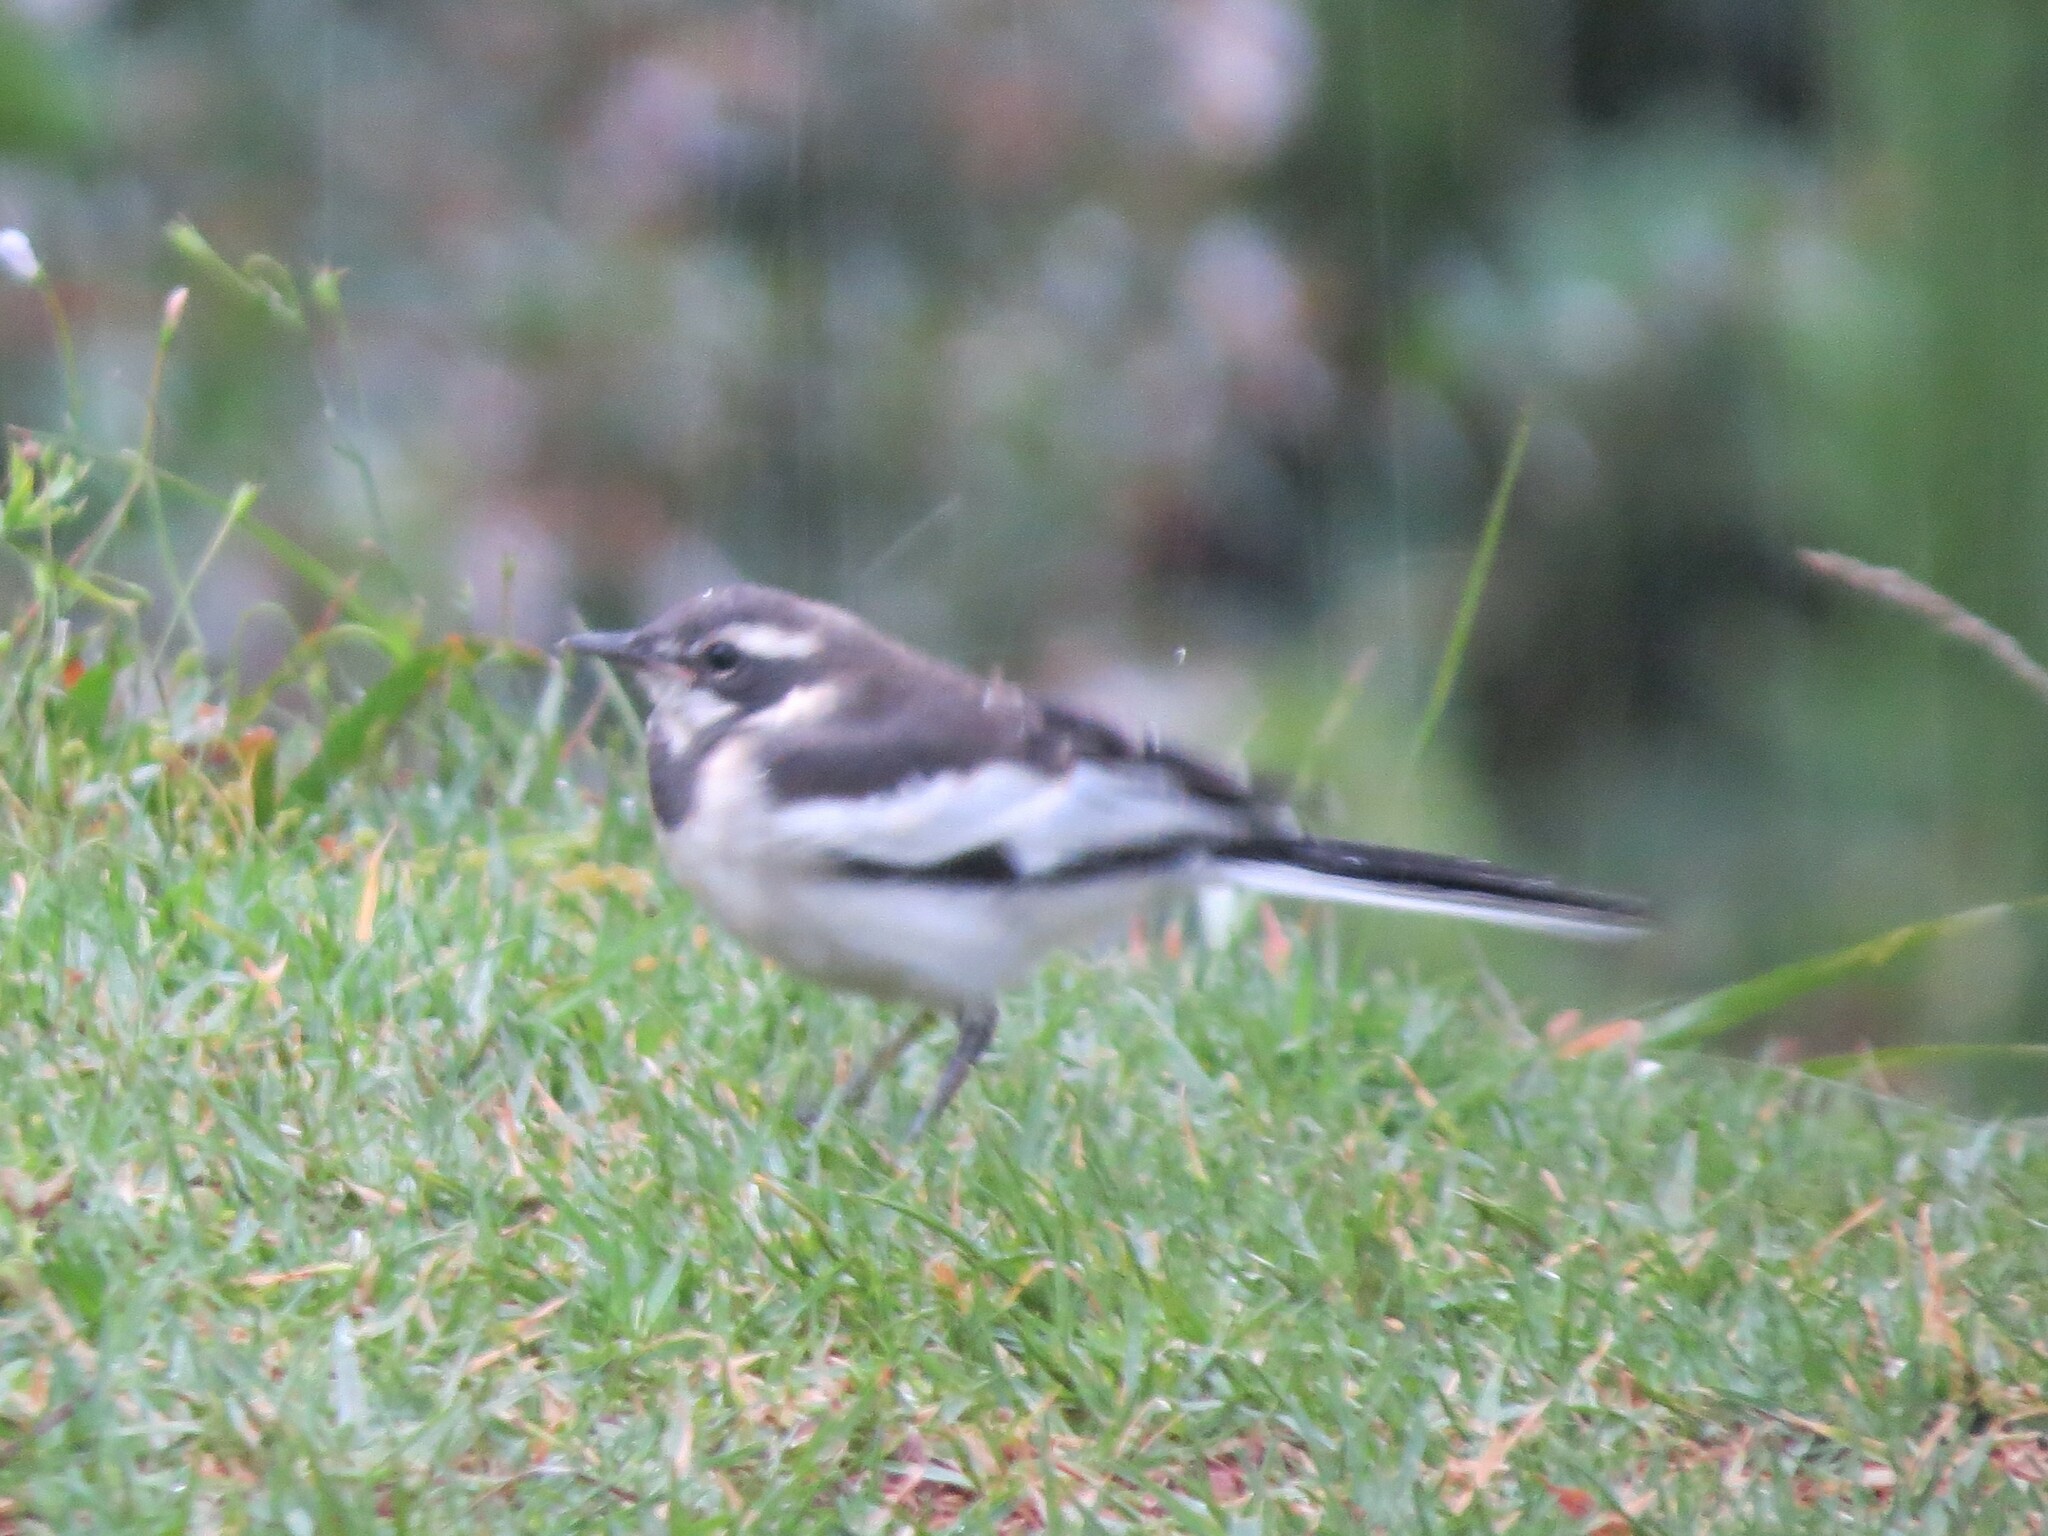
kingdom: Animalia
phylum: Chordata
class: Aves
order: Passeriformes
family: Motacillidae
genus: Motacilla
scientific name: Motacilla aguimp
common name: African pied wagtail
